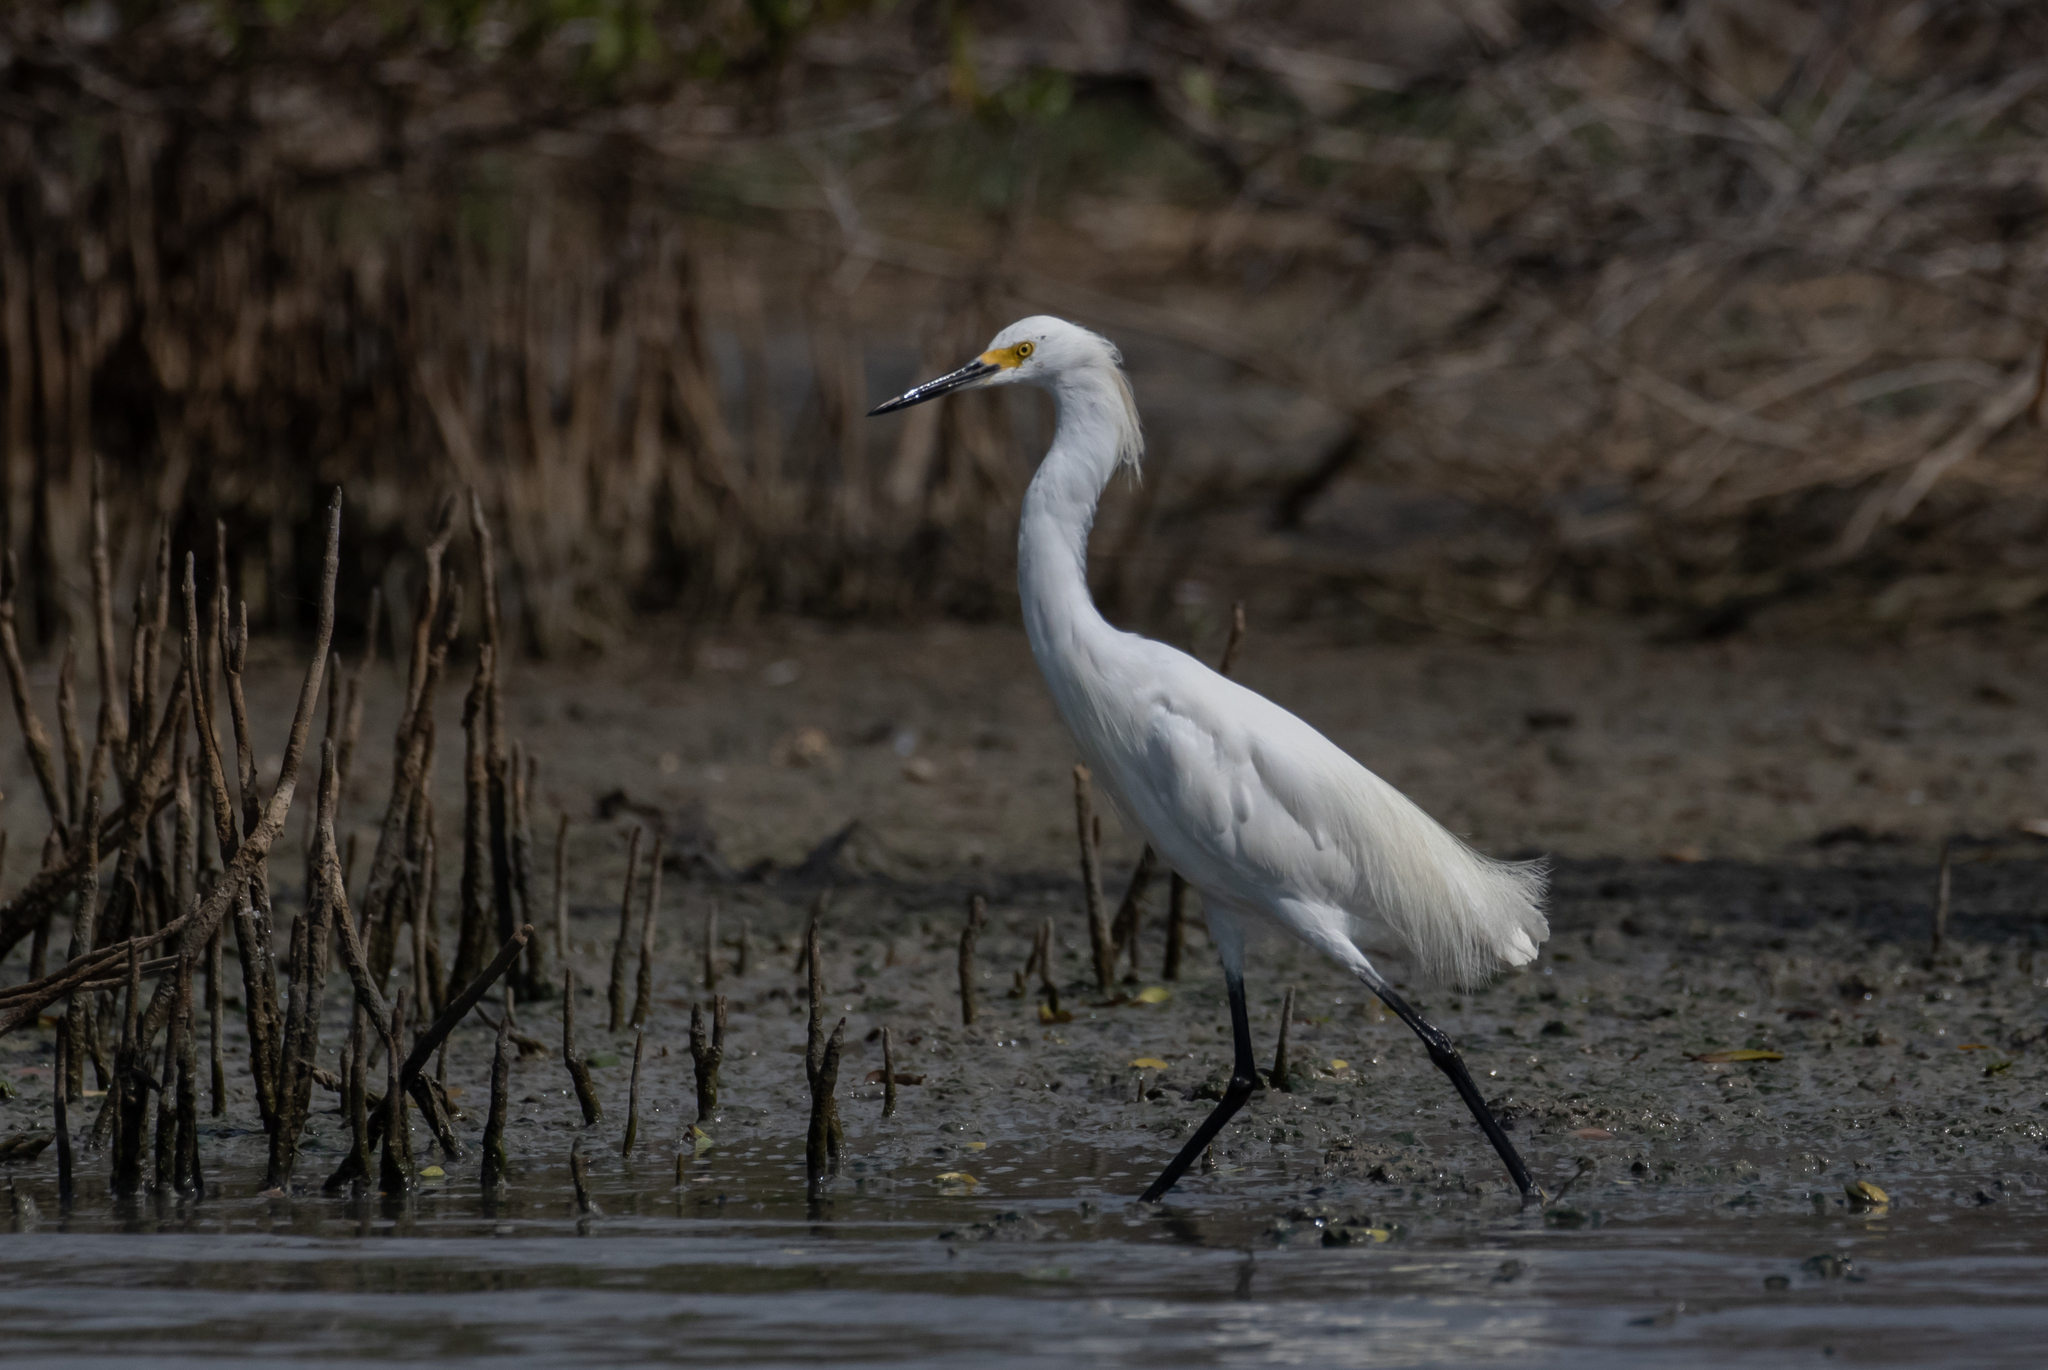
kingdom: Animalia
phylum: Chordata
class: Aves
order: Pelecaniformes
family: Ardeidae
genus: Egretta
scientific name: Egretta thula
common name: Snowy egret
